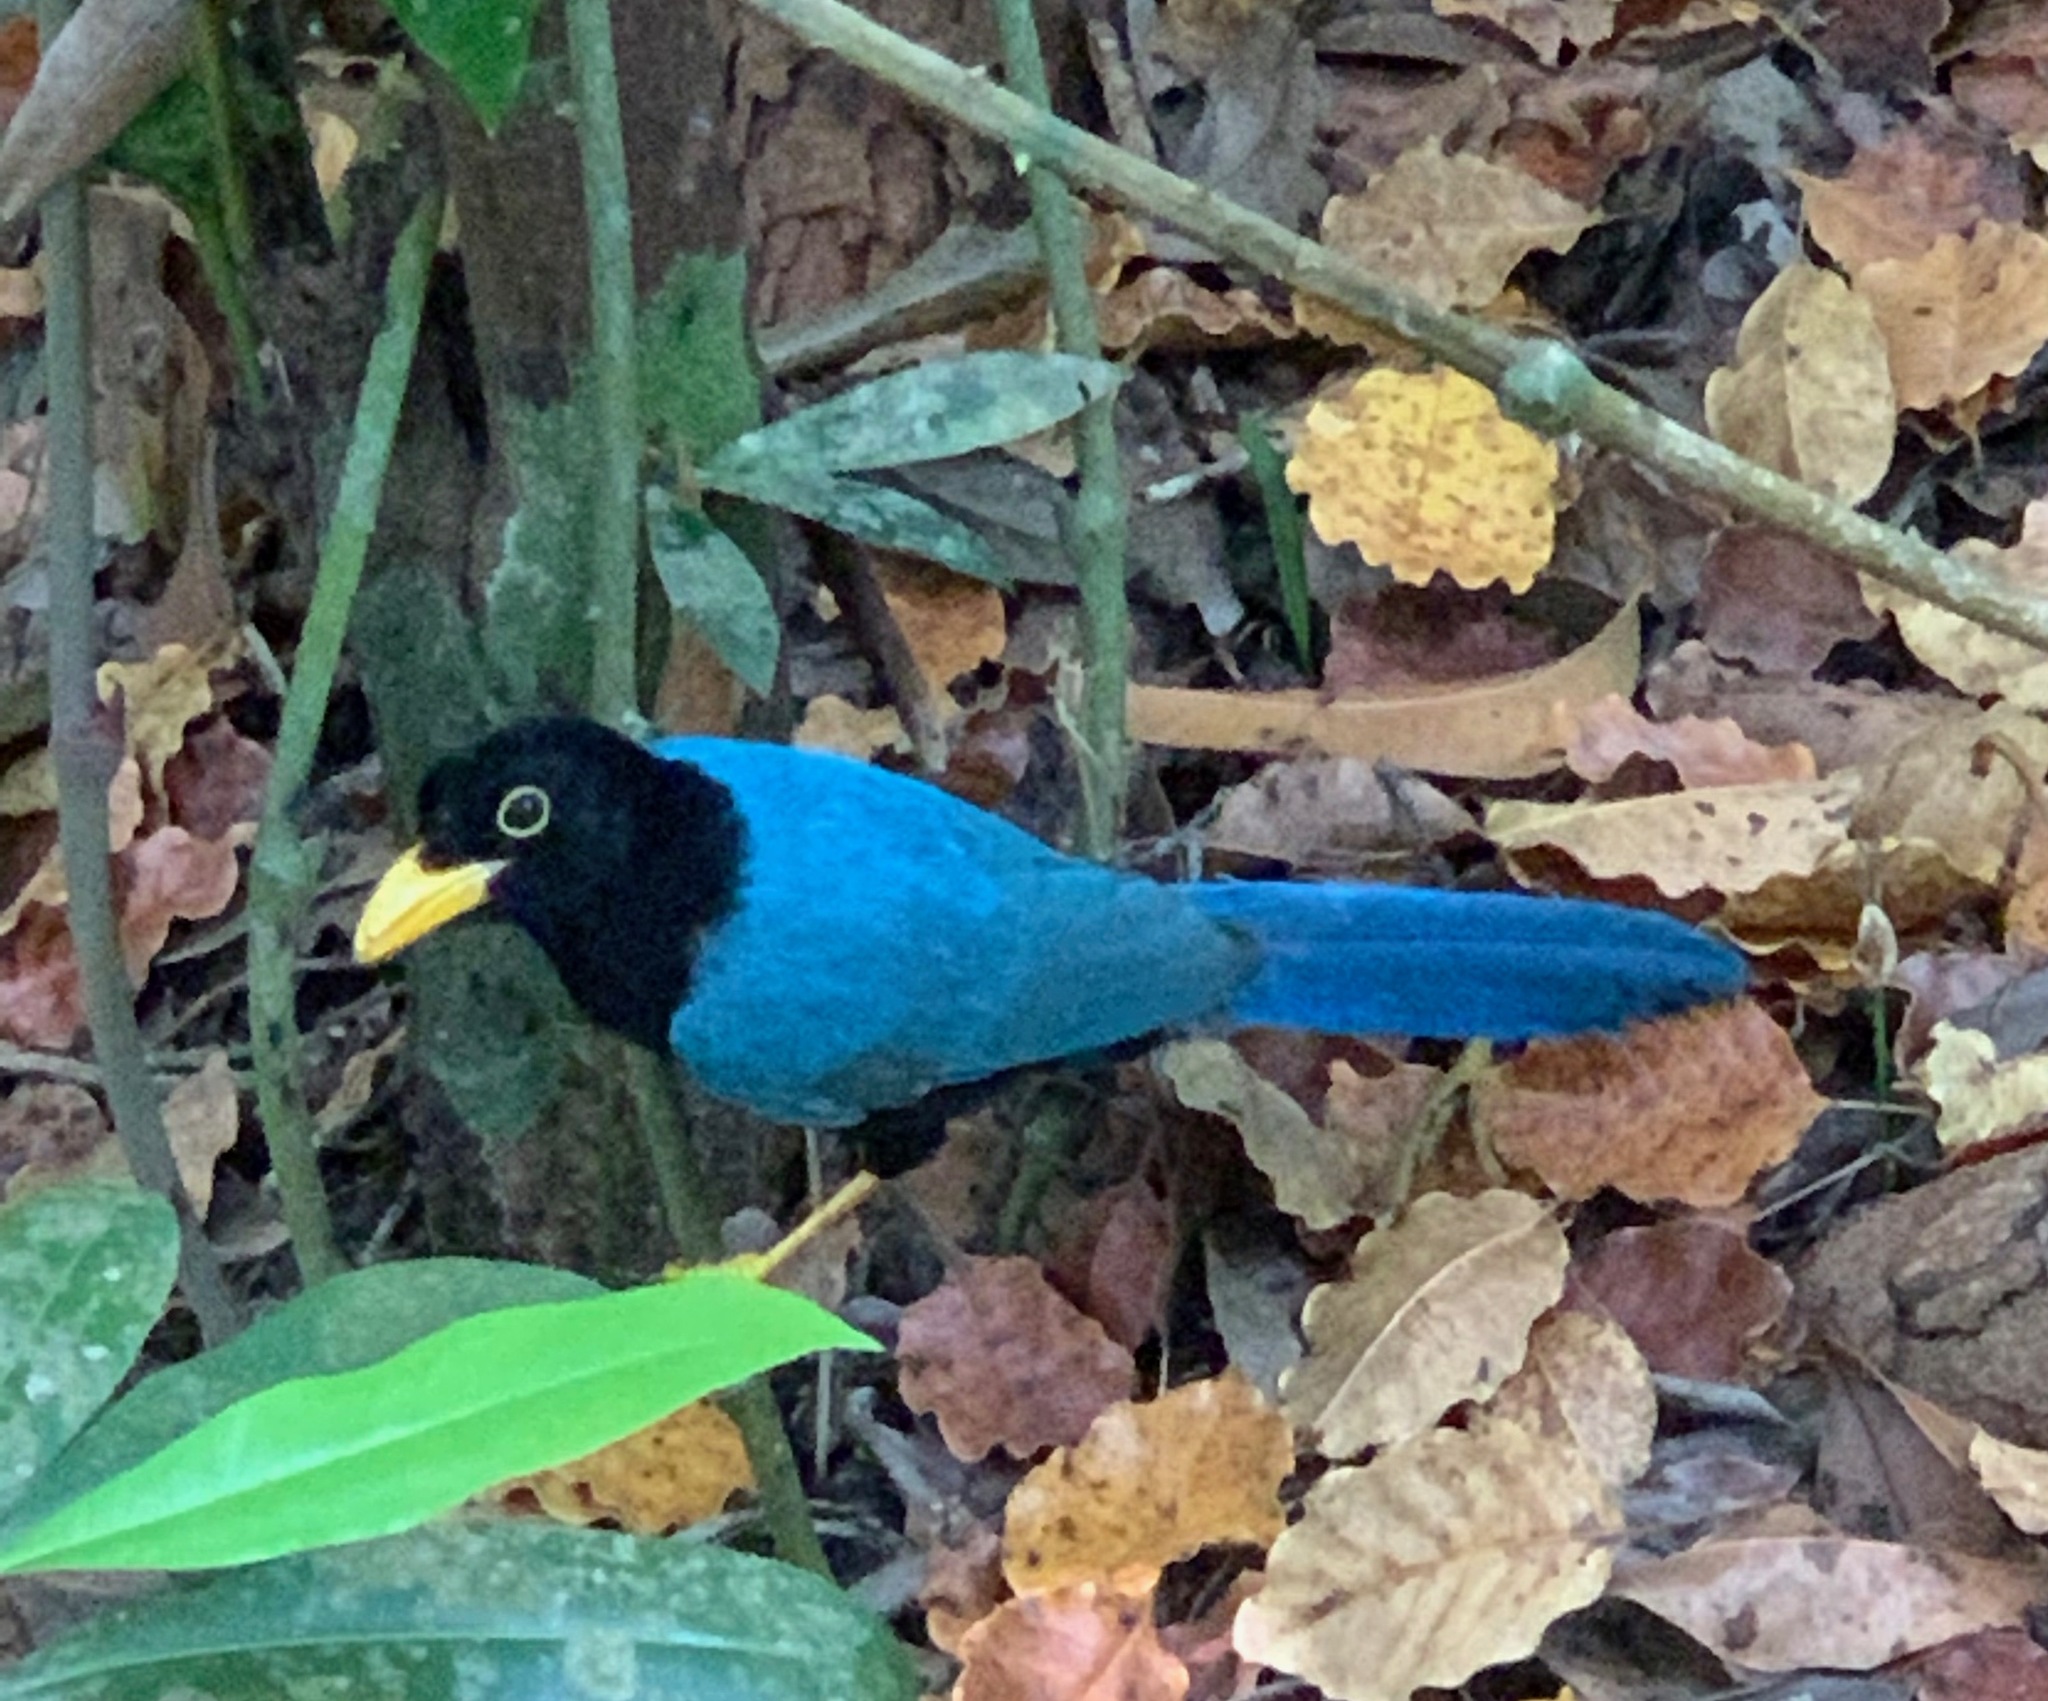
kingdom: Animalia
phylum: Chordata
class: Aves
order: Passeriformes
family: Corvidae
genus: Cyanocorax
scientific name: Cyanocorax yucatanicus
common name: Yucatan jay
